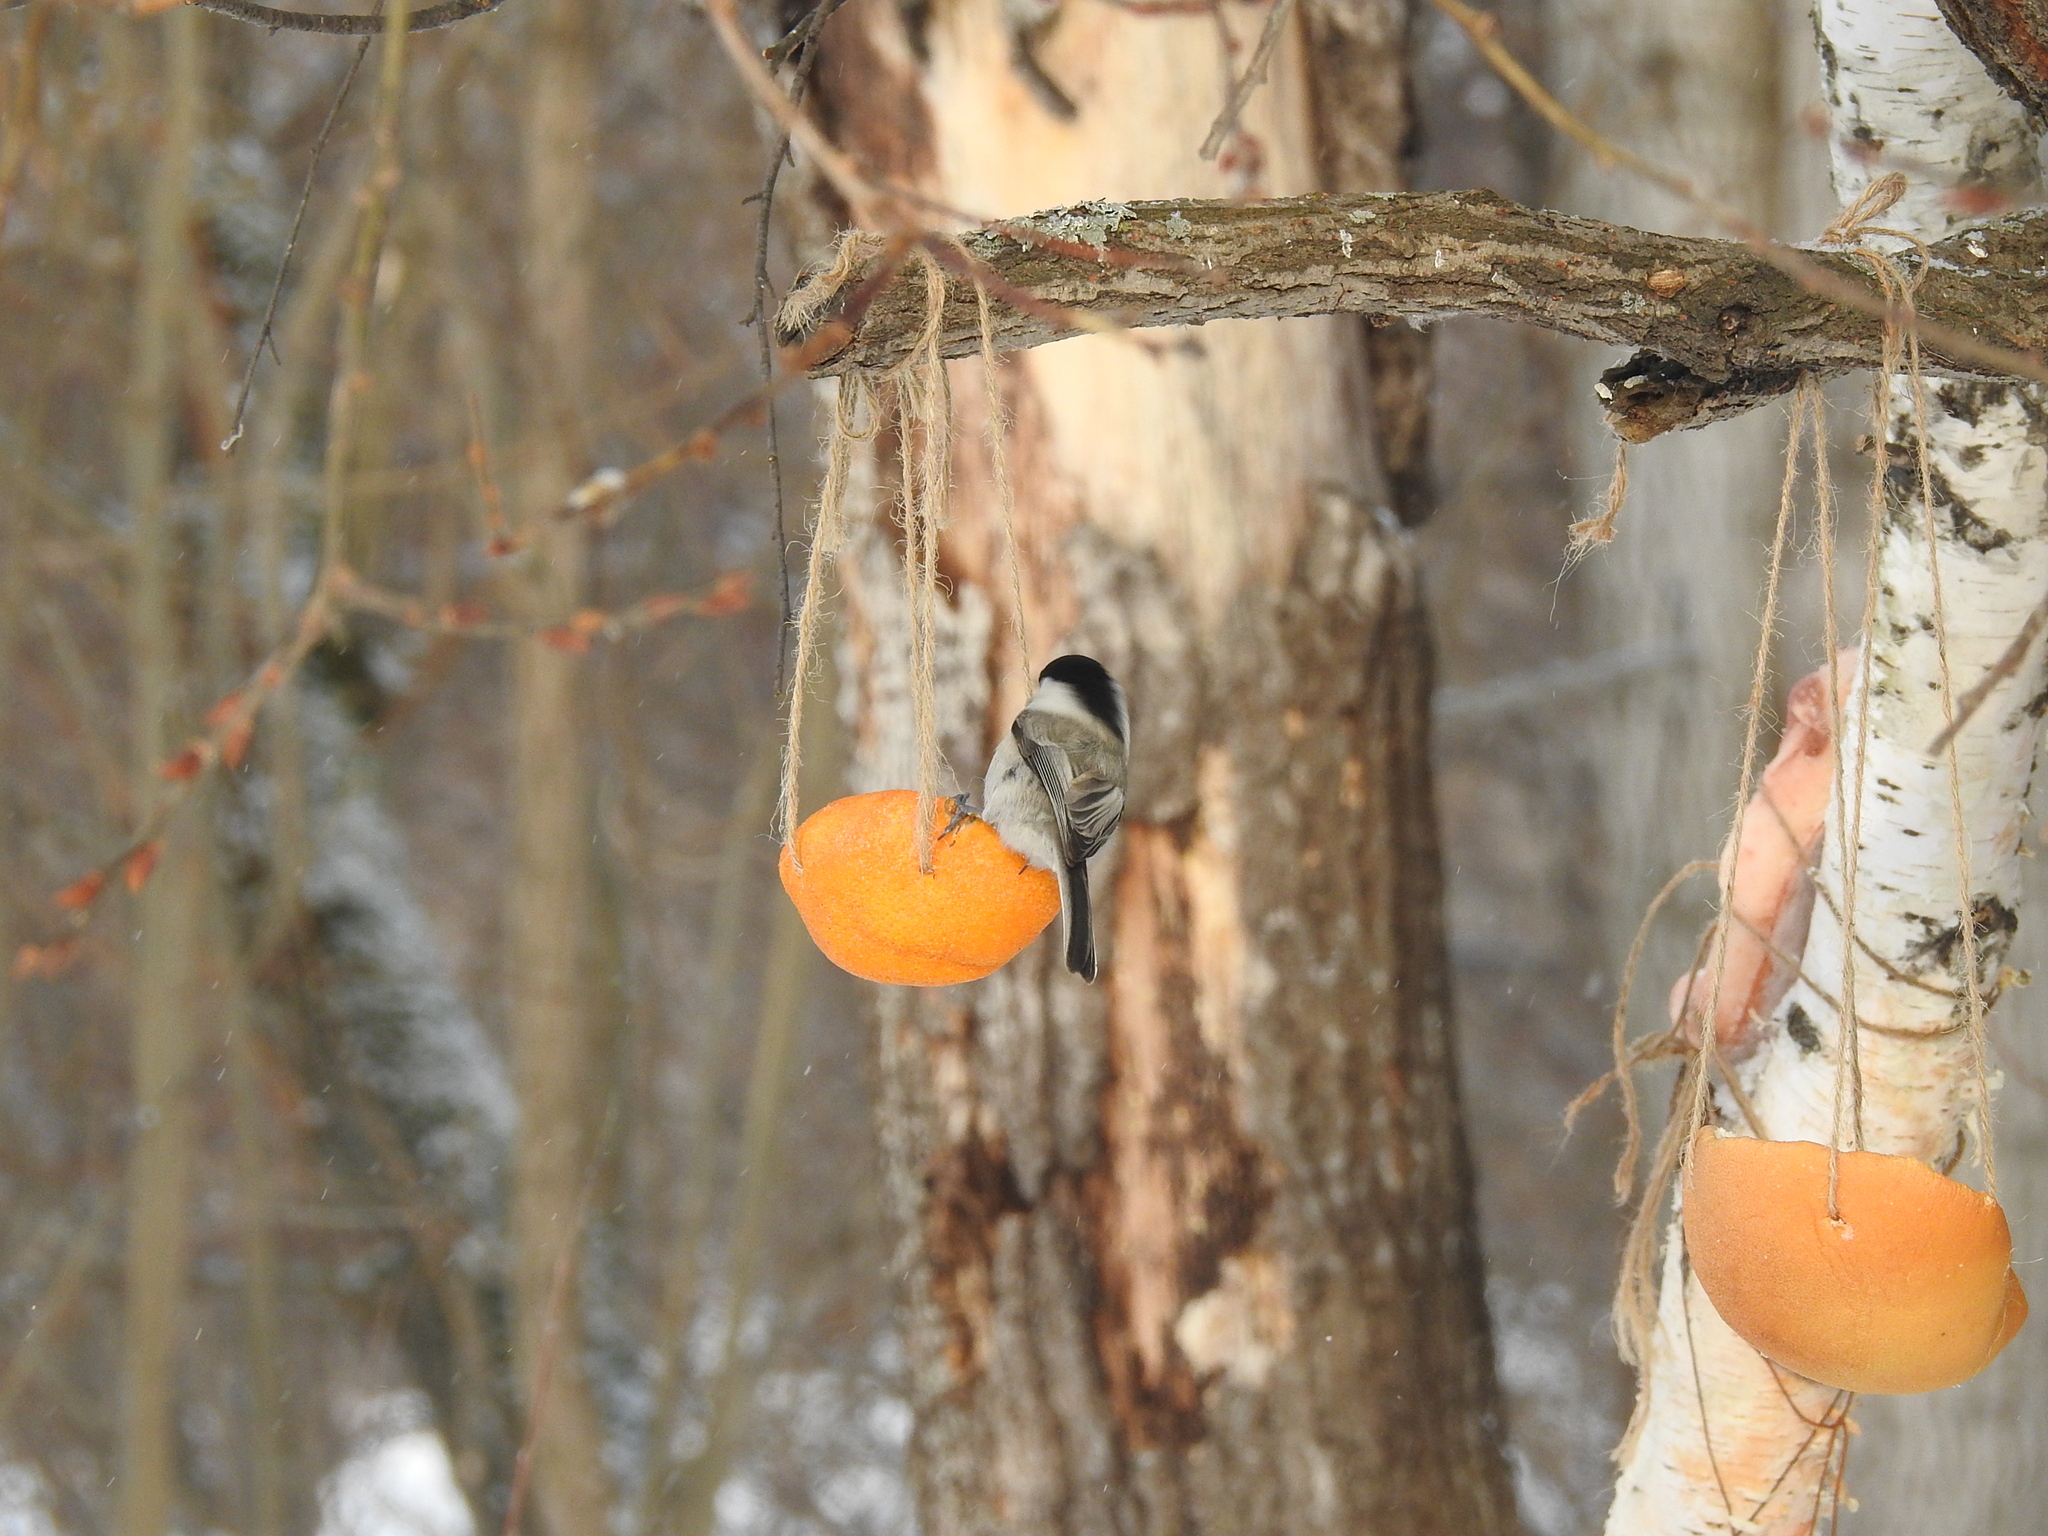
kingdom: Animalia
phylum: Chordata
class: Aves
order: Passeriformes
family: Paridae
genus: Poecile
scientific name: Poecile montanus
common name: Willow tit
